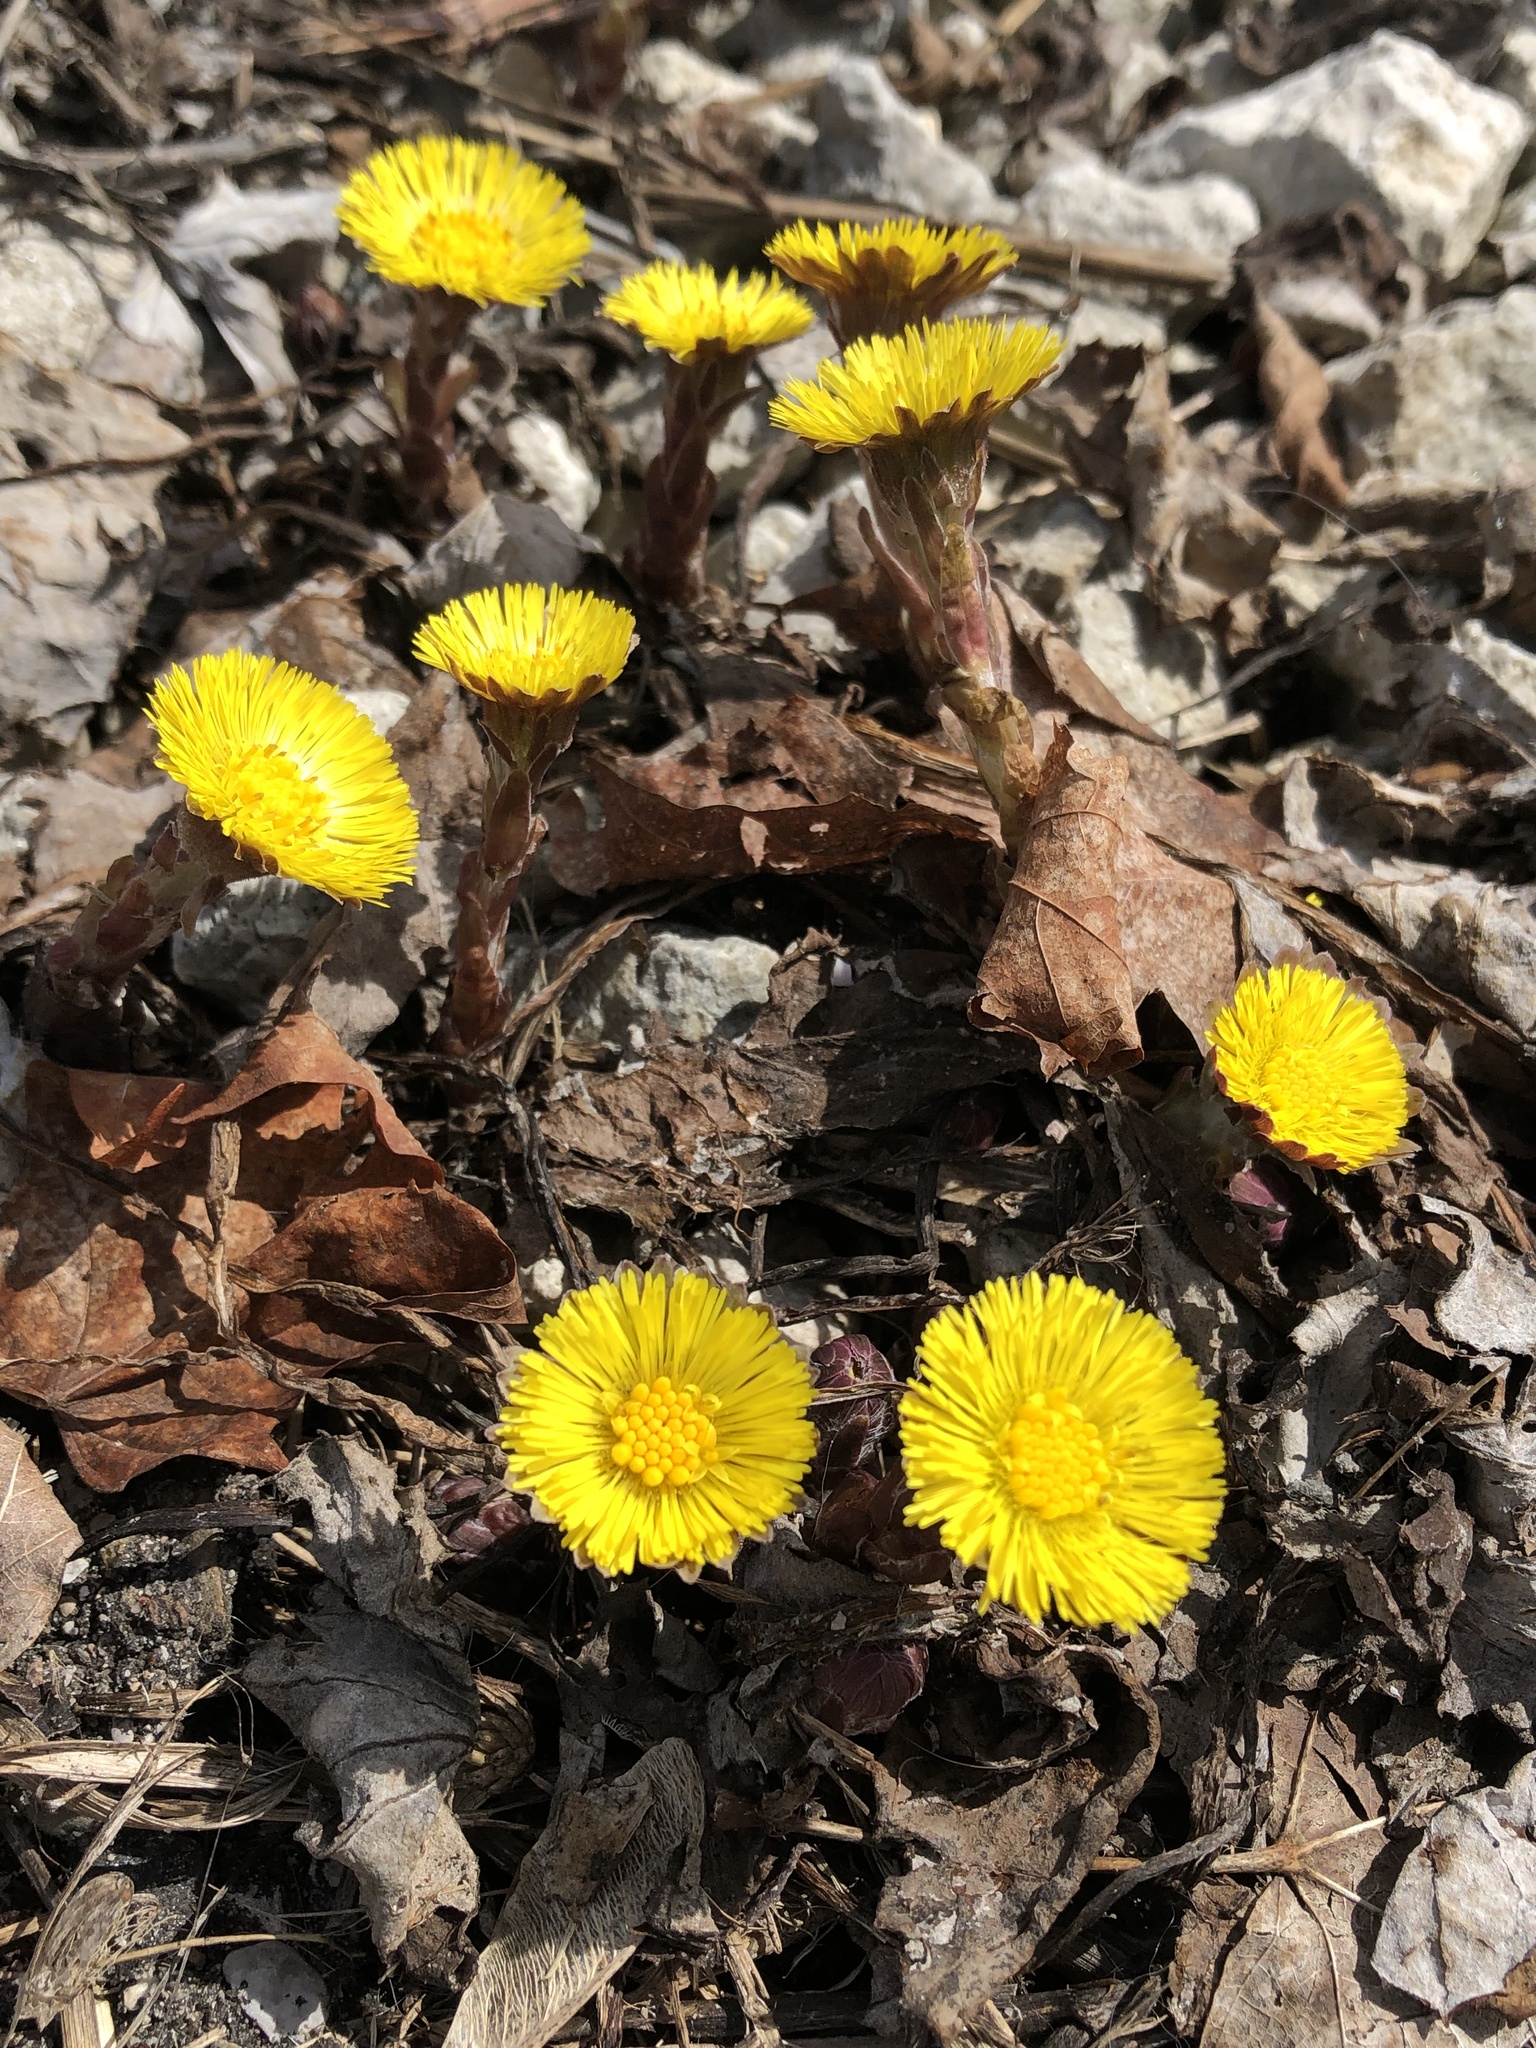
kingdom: Plantae
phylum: Tracheophyta
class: Magnoliopsida
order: Asterales
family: Asteraceae
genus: Tussilago
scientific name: Tussilago farfara
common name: Coltsfoot
